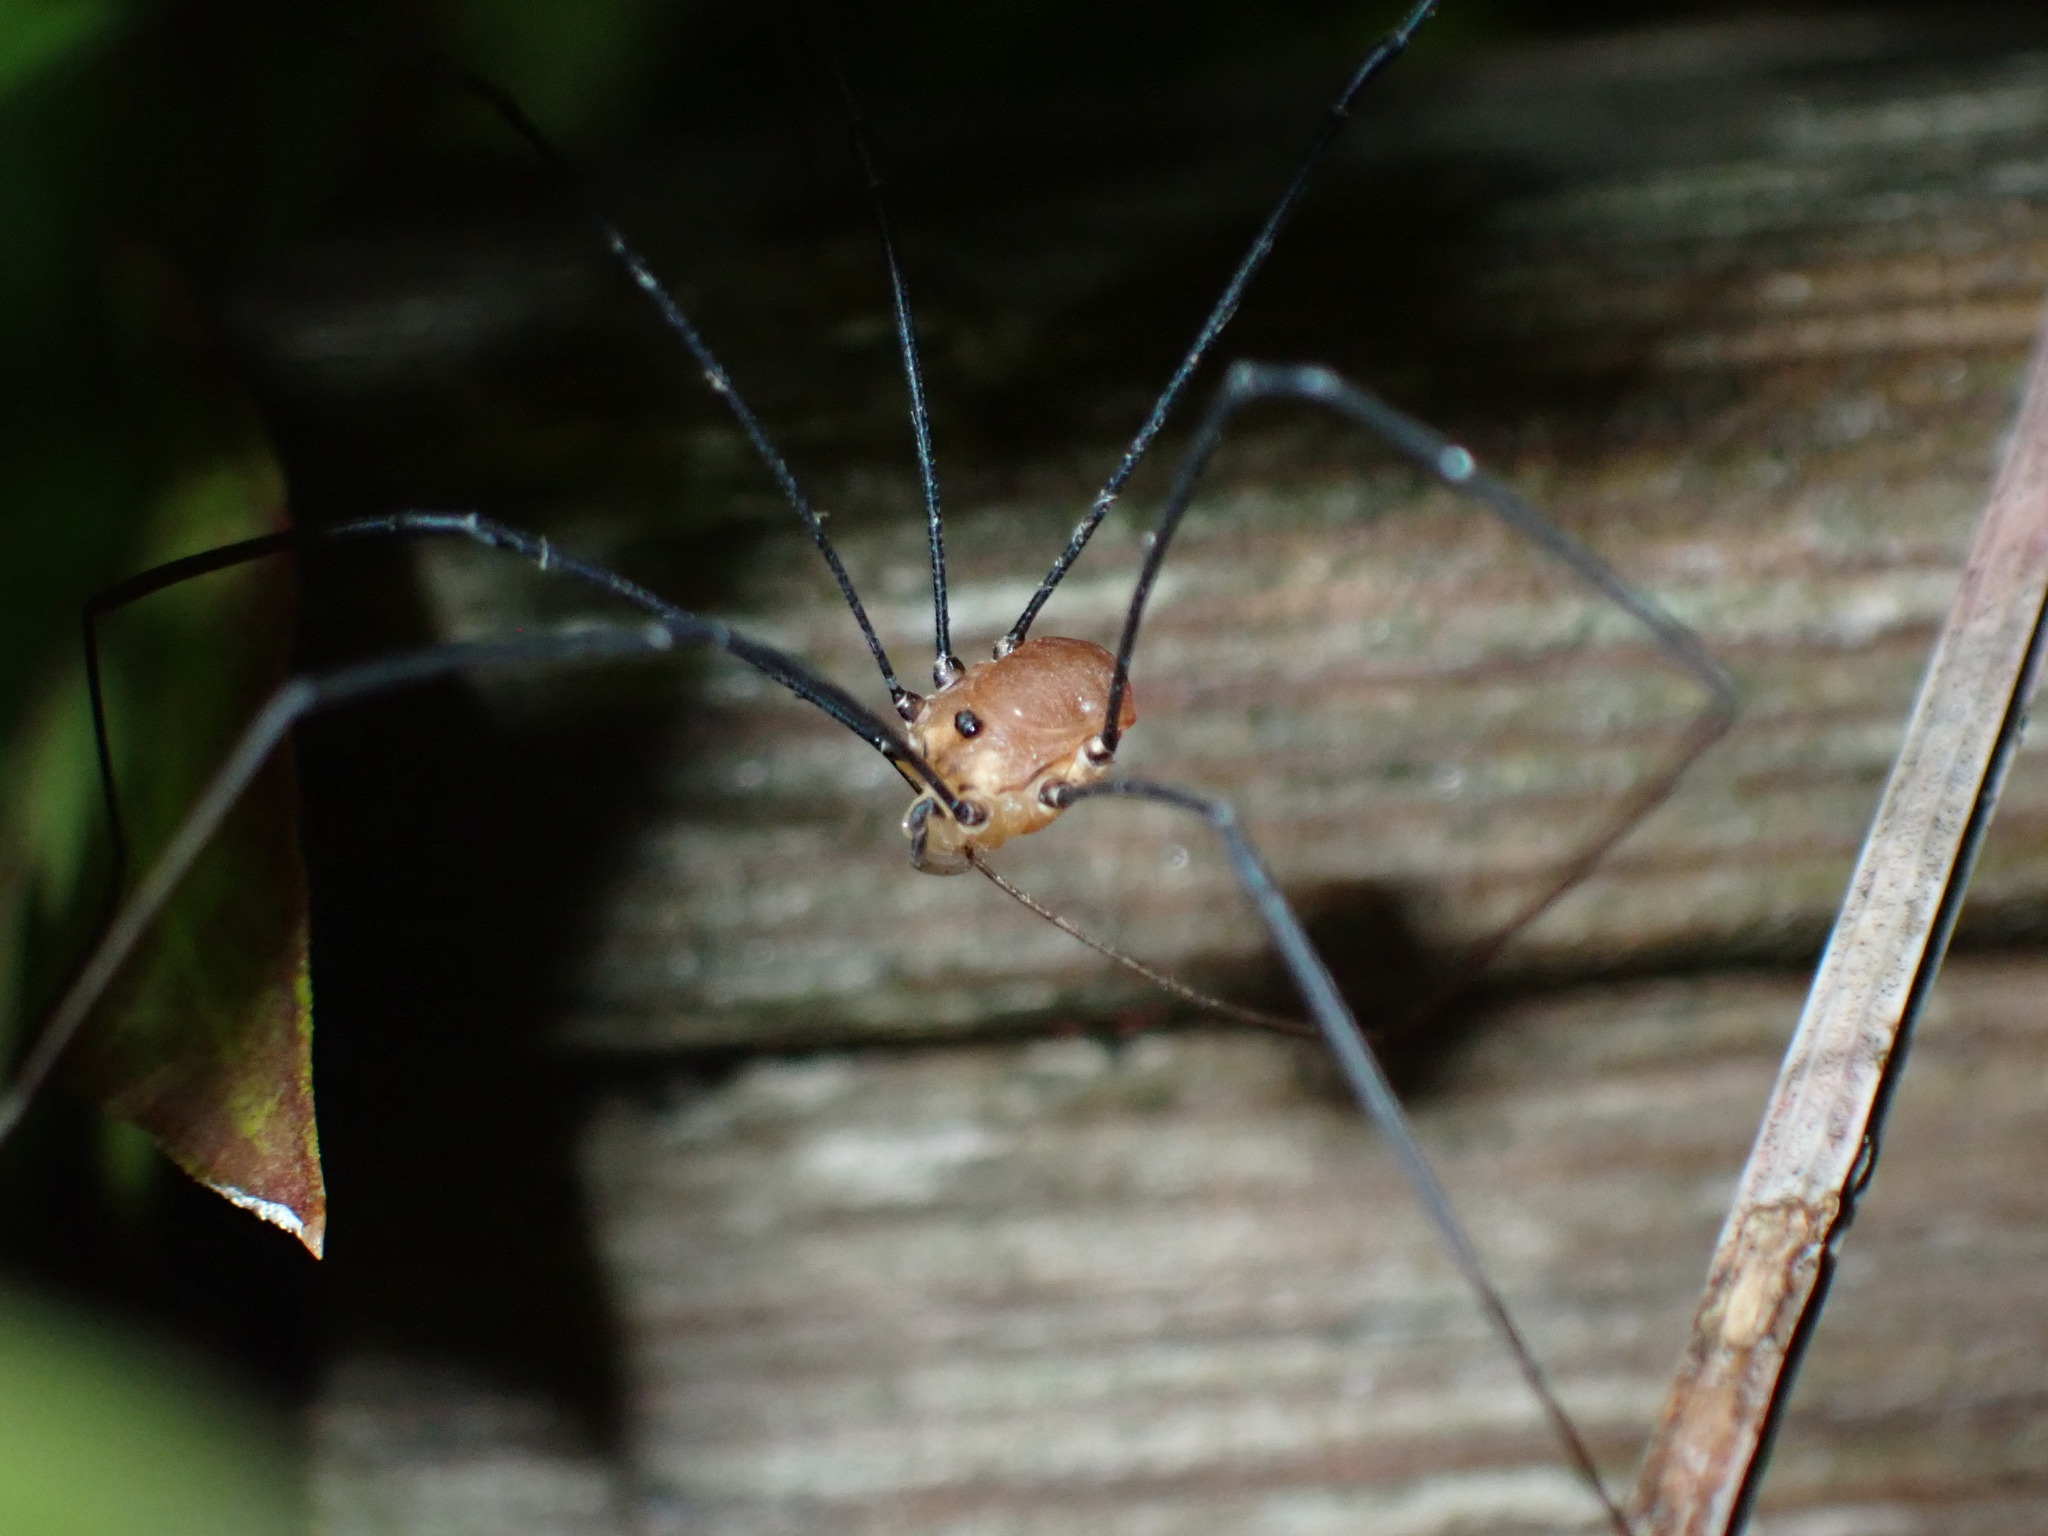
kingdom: Animalia
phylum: Arthropoda
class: Arachnida
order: Opiliones
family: Sclerosomatidae
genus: Leiobunum
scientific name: Leiobunum rotundum
